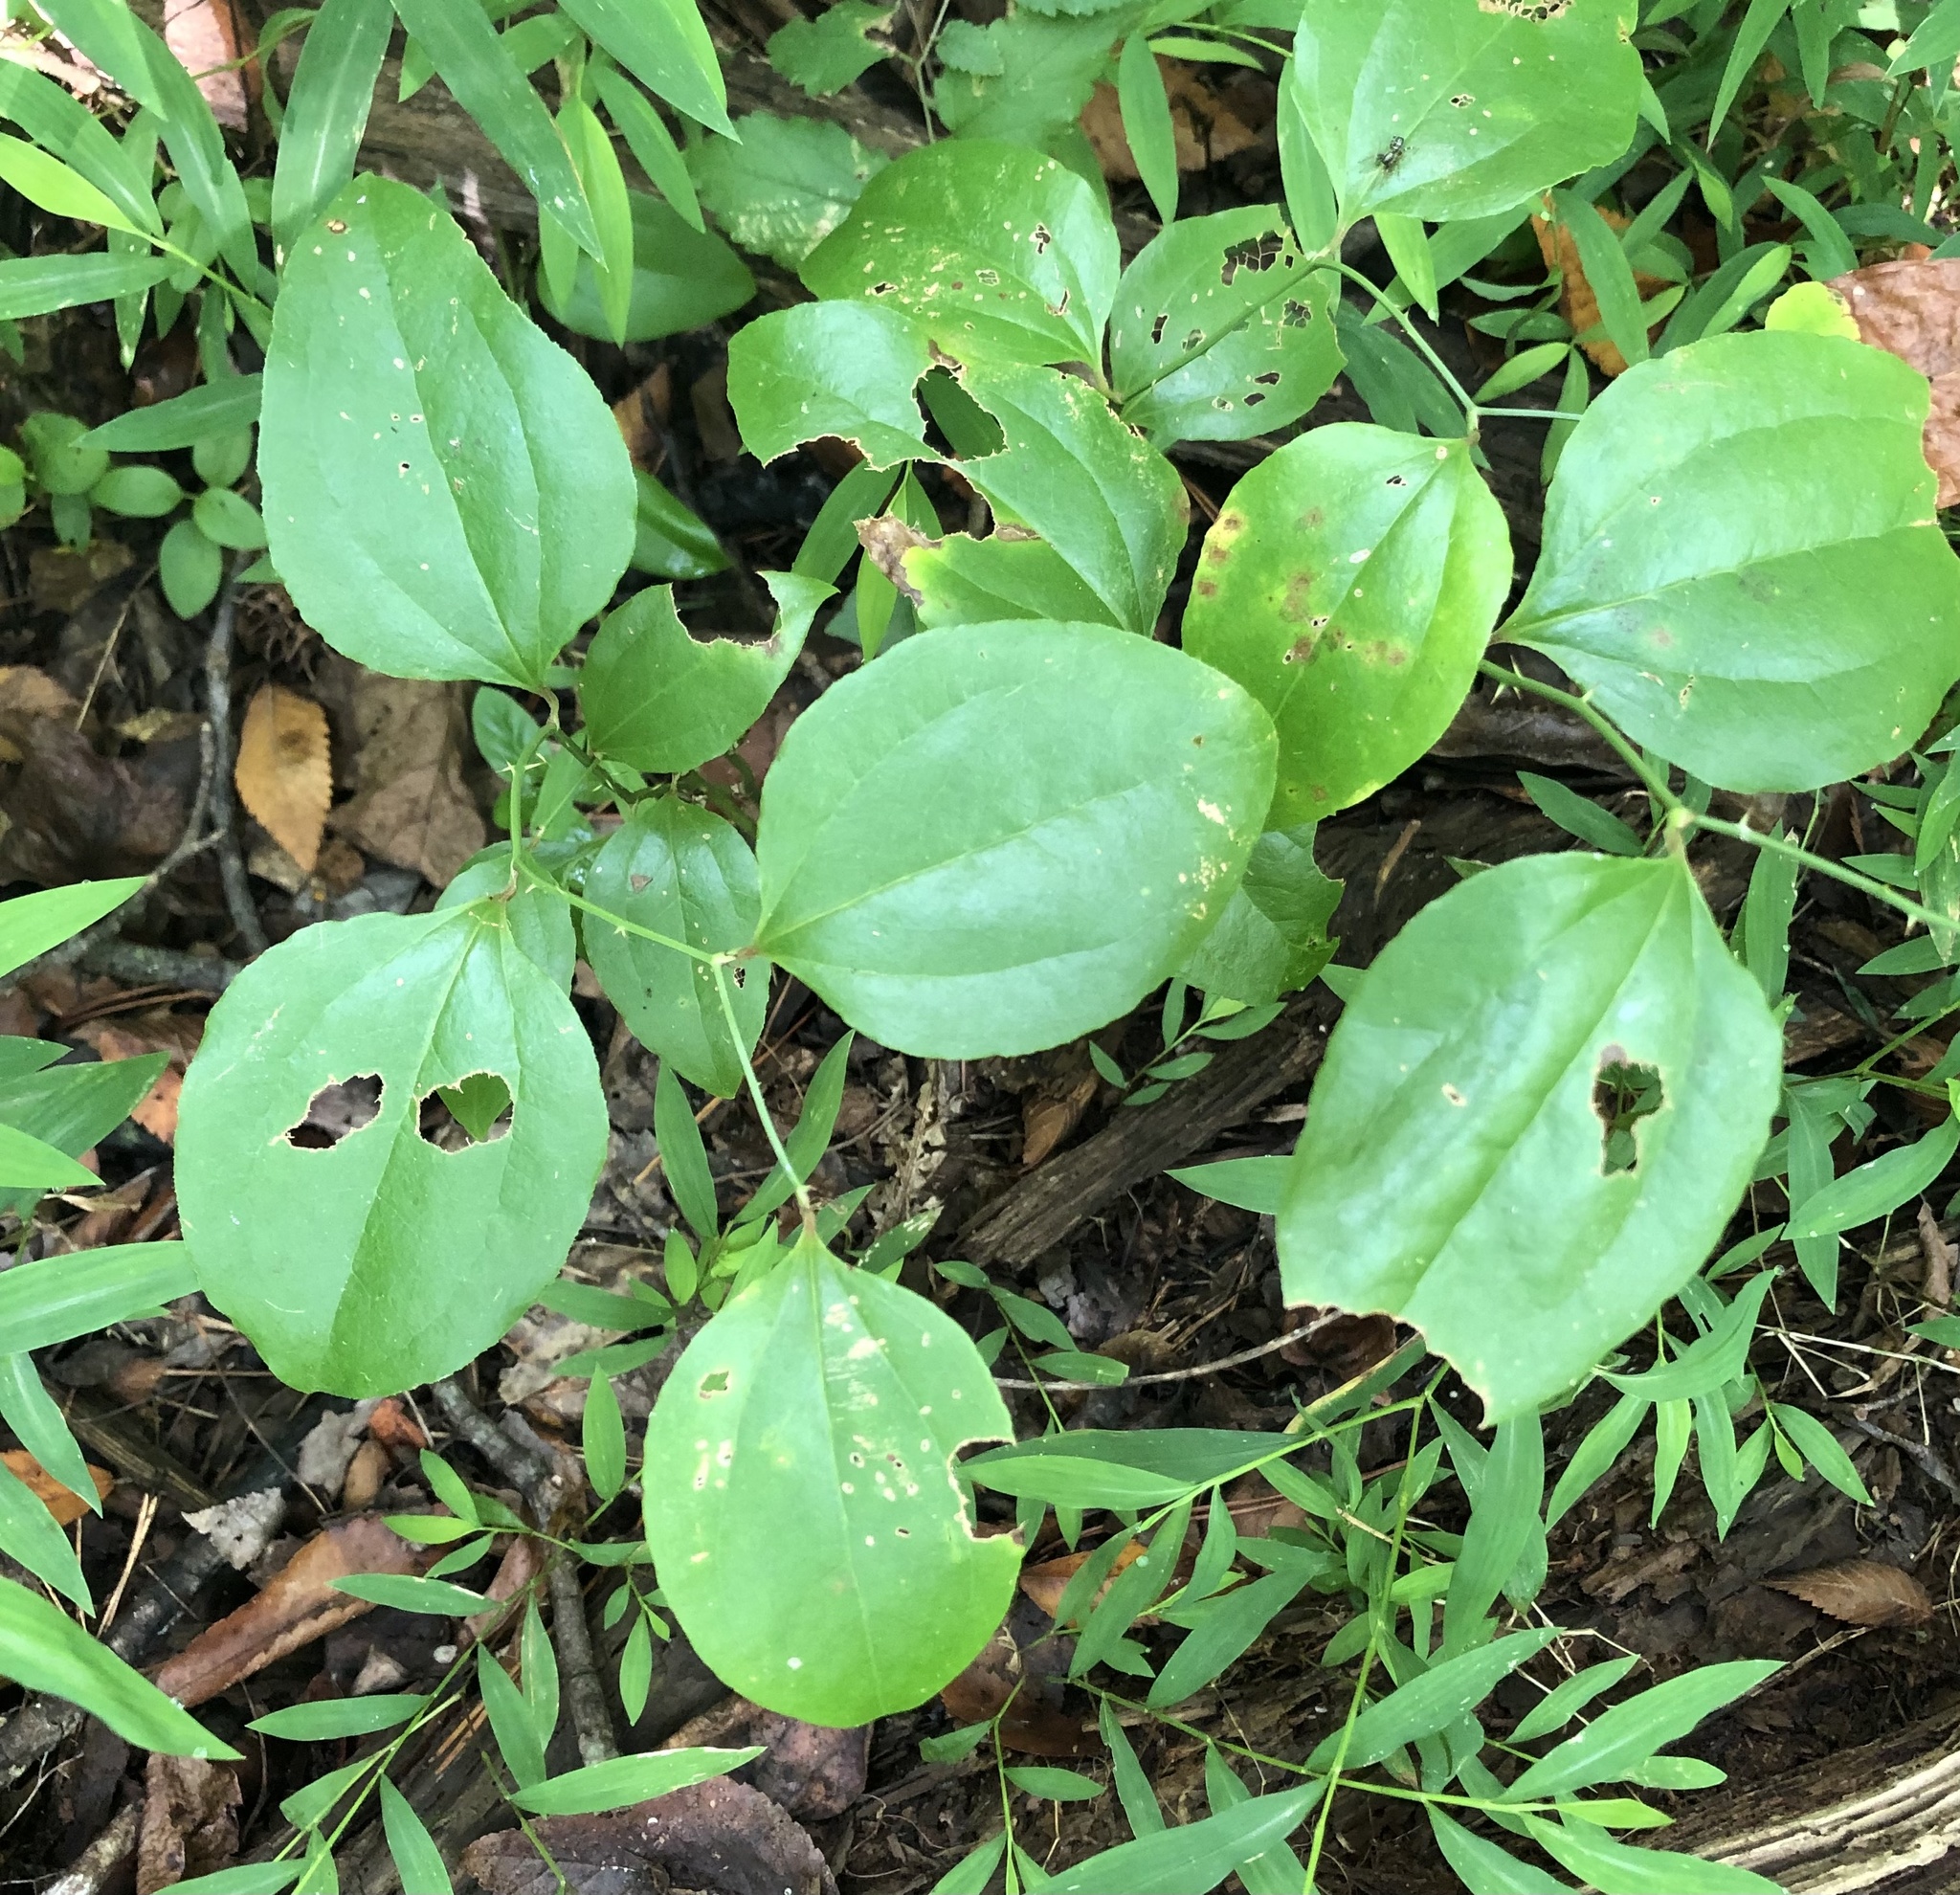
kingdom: Plantae
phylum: Tracheophyta
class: Liliopsida
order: Liliales
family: Smilacaceae
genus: Smilax
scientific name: Smilax rotundifolia
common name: Bullbriar
